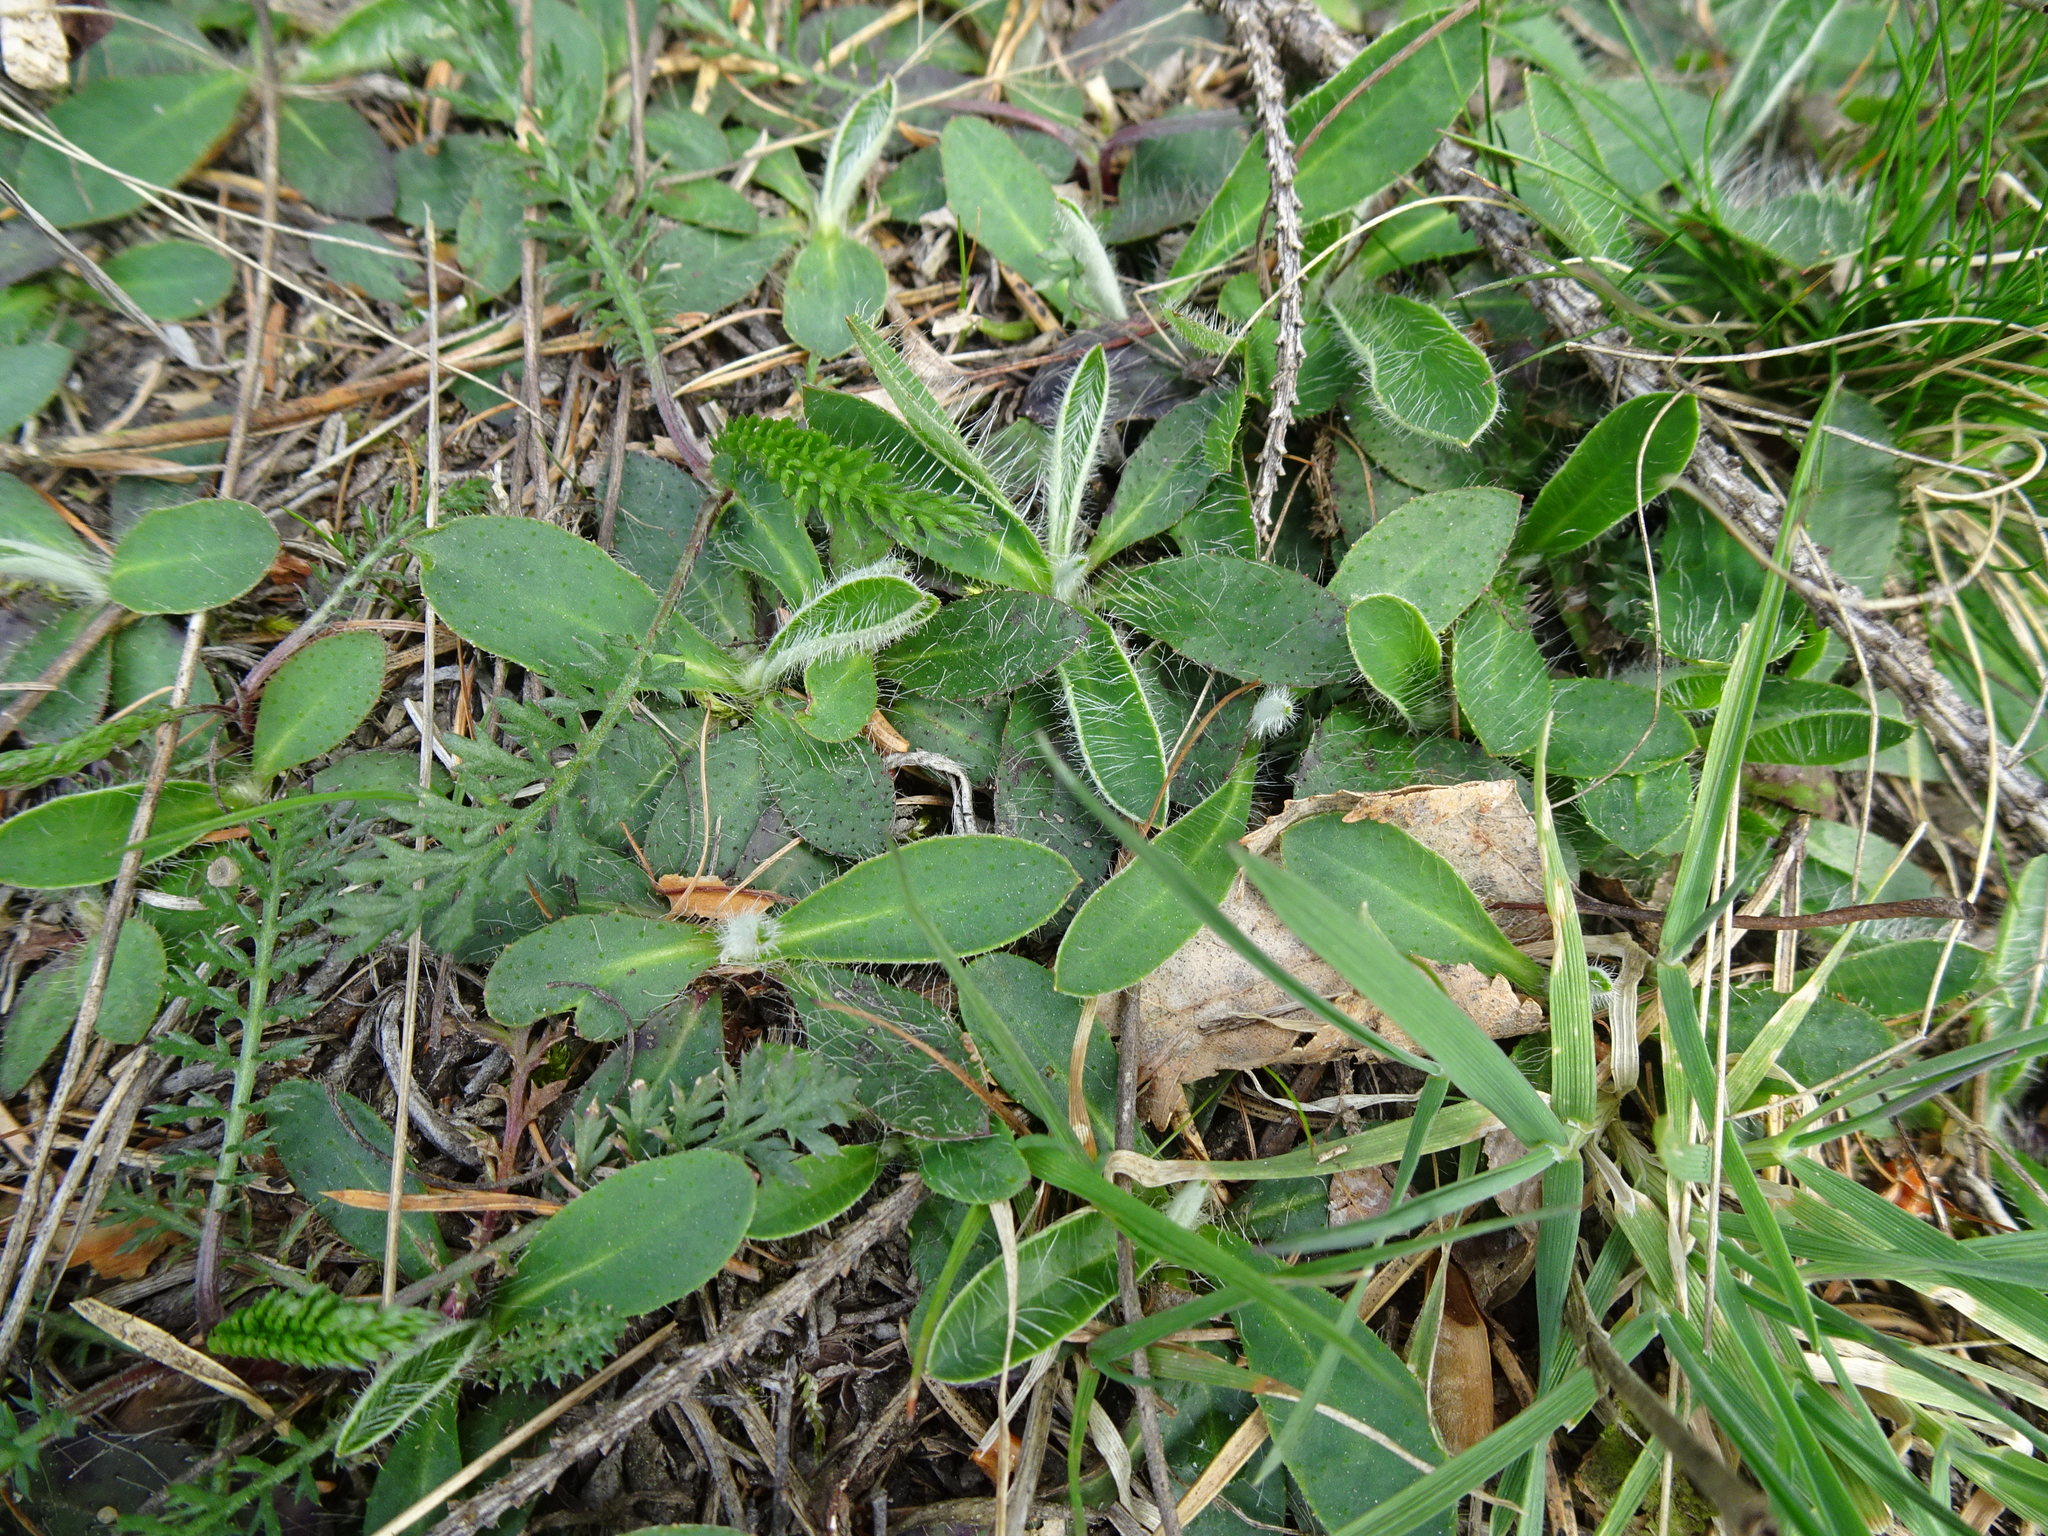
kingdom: Plantae
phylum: Tracheophyta
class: Magnoliopsida
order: Asterales
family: Asteraceae
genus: Pilosella
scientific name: Pilosella officinarum
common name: Mouse-ear hawkweed
